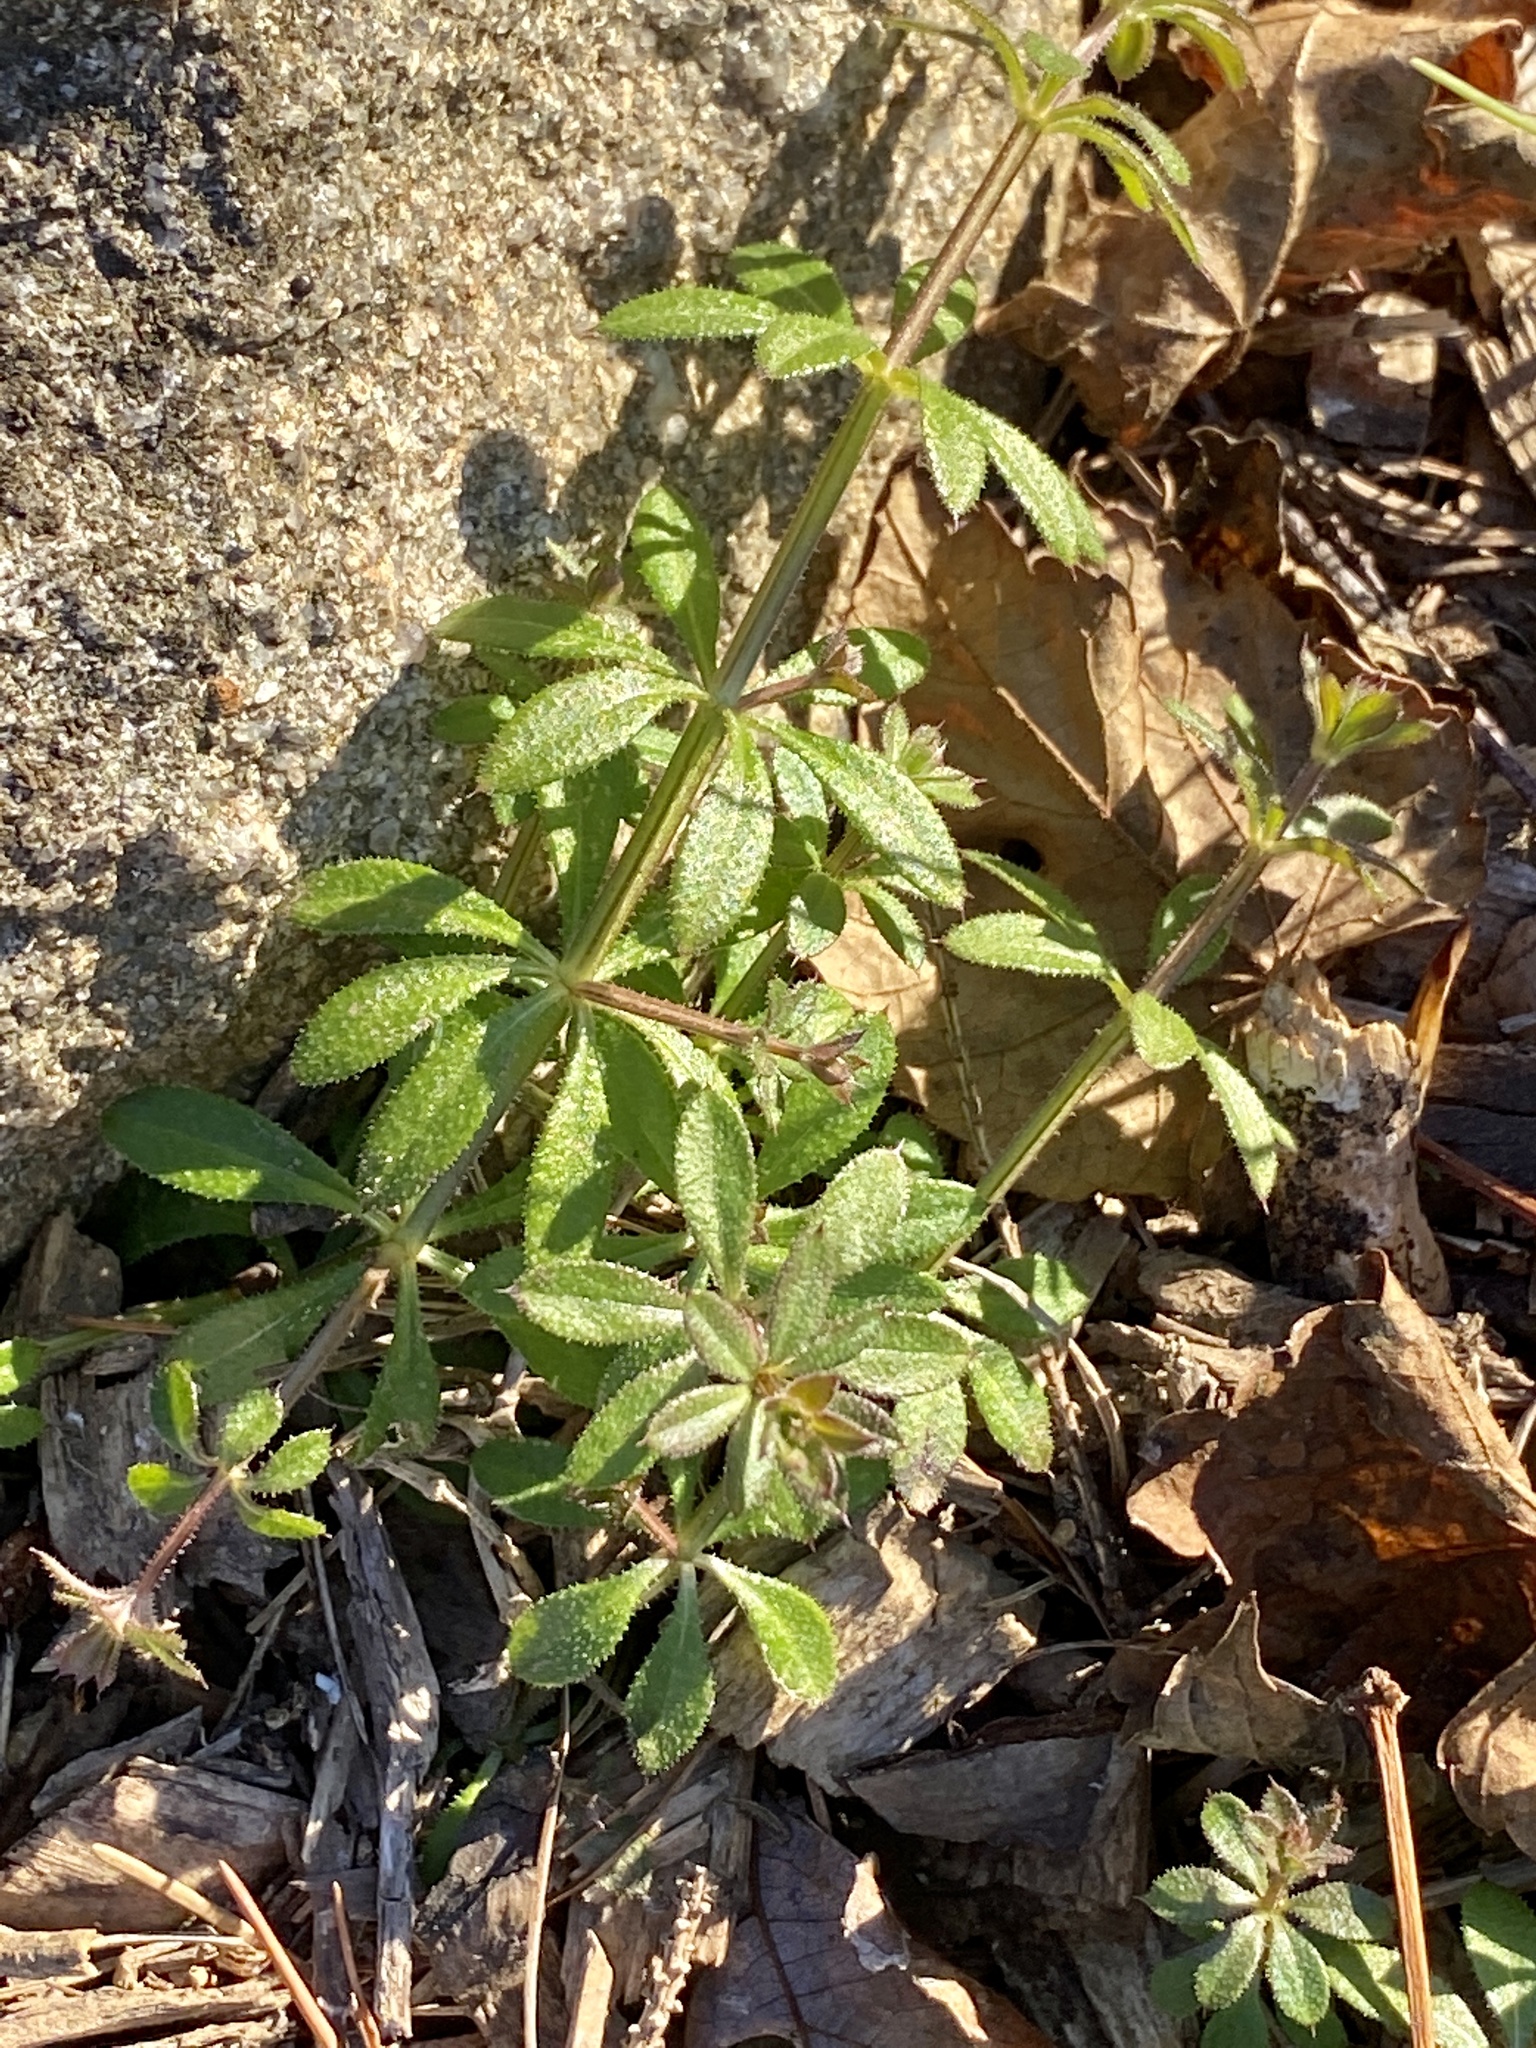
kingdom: Plantae
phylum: Tracheophyta
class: Magnoliopsida
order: Gentianales
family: Rubiaceae
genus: Galium
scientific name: Galium aparine
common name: Cleavers
